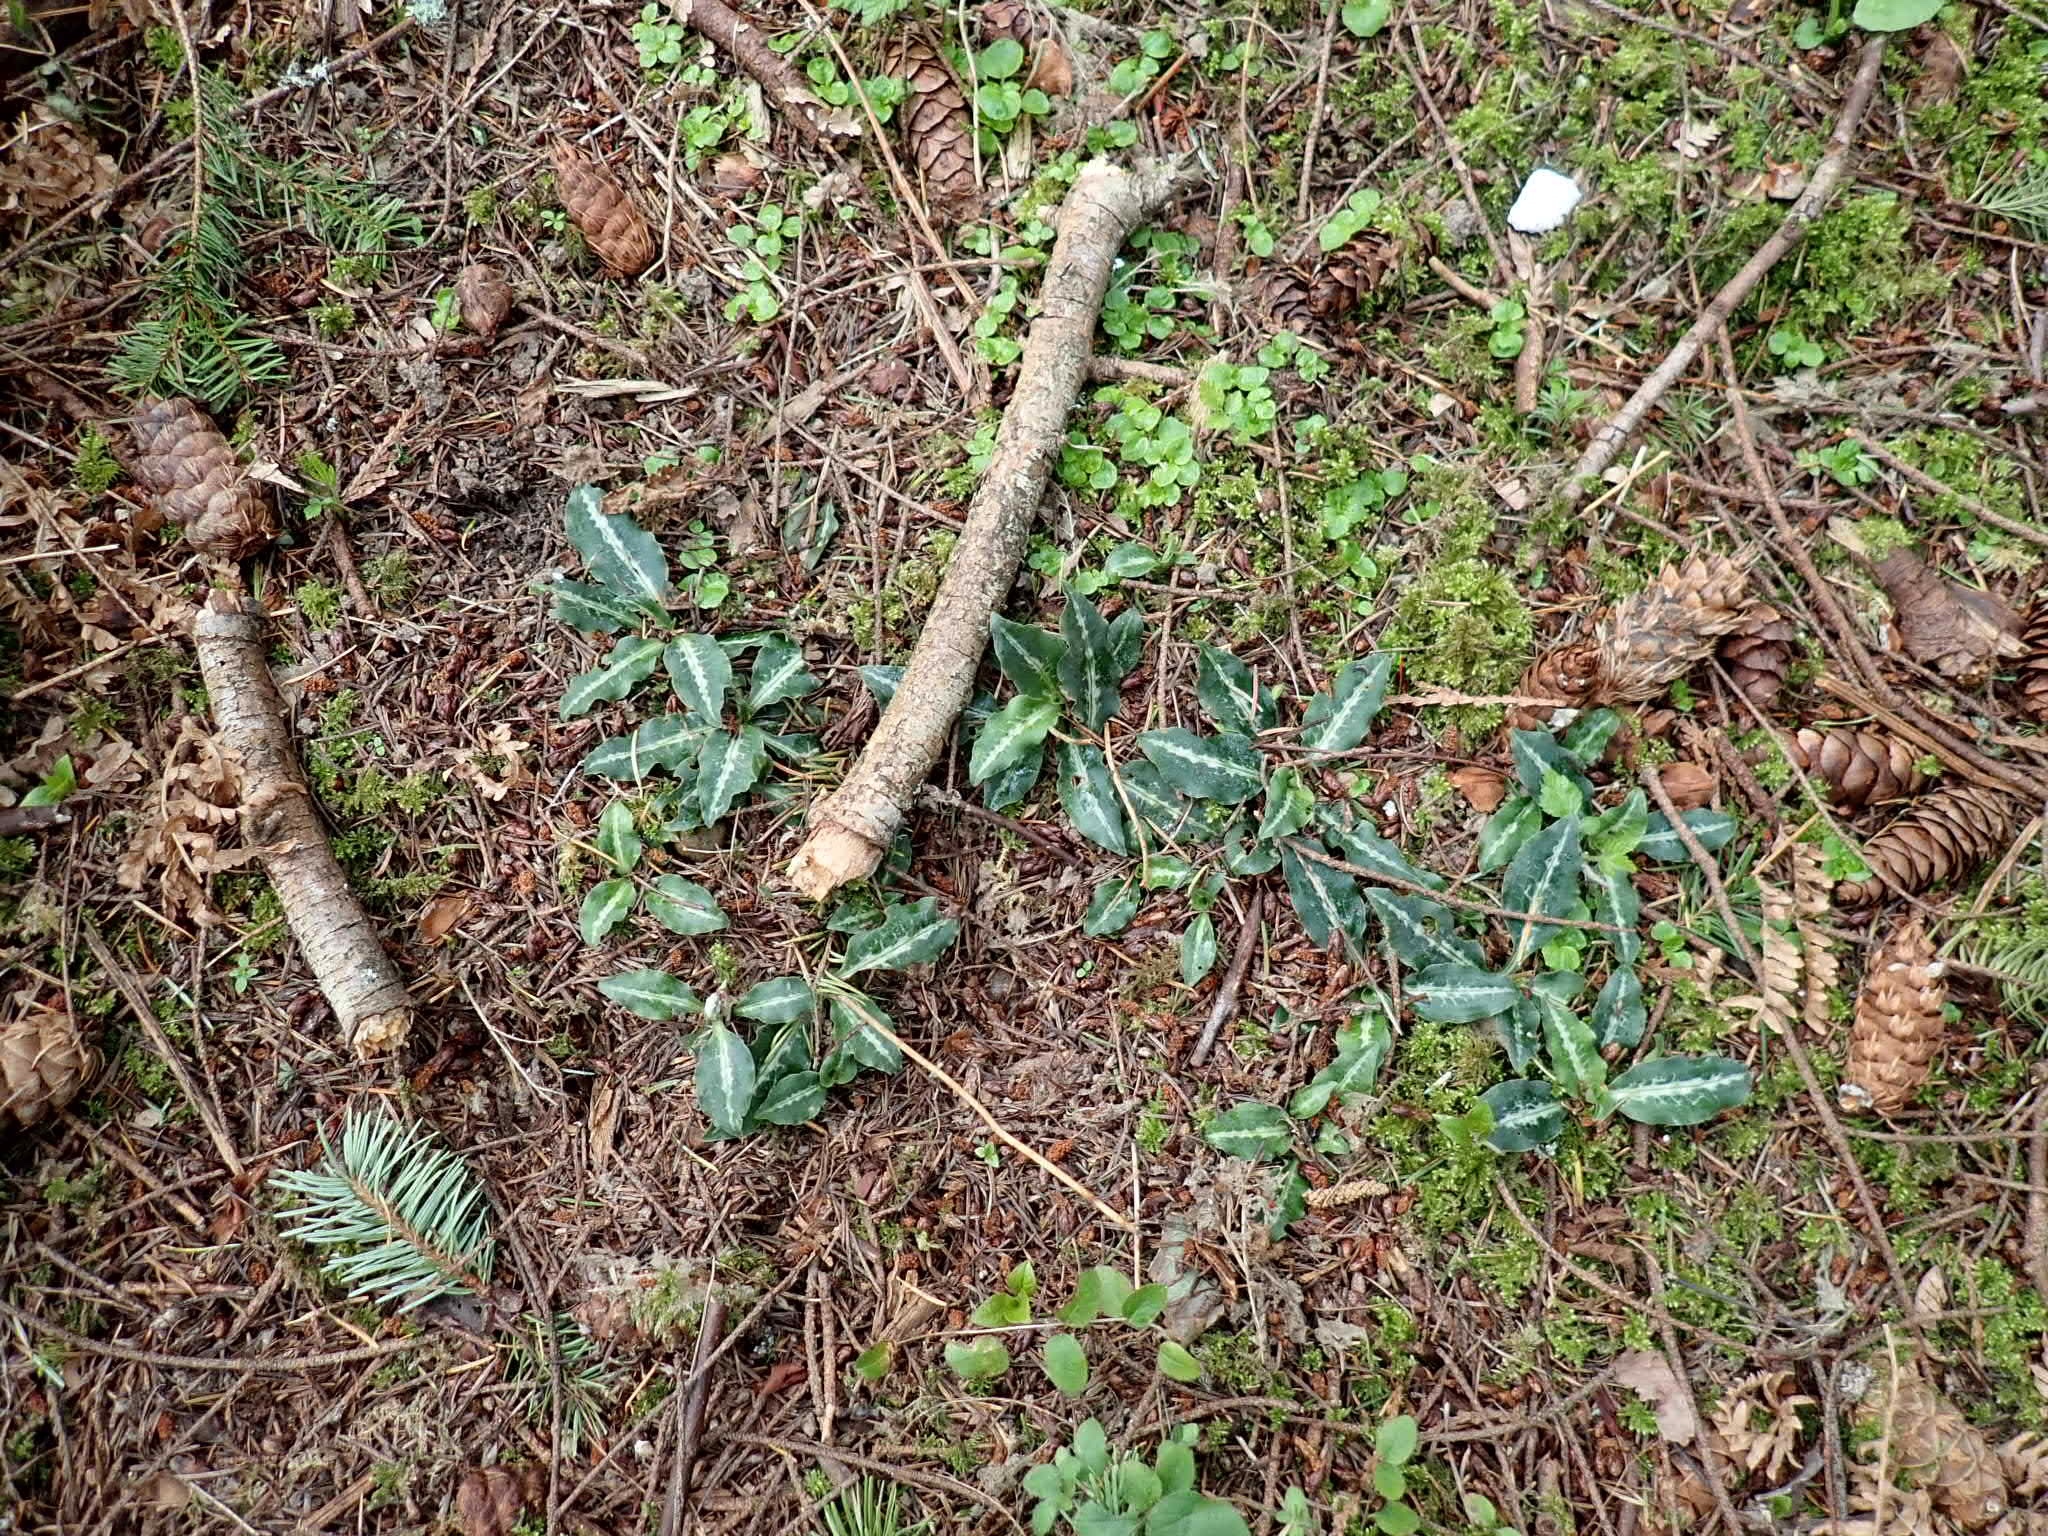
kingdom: Plantae
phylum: Tracheophyta
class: Liliopsida
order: Asparagales
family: Orchidaceae
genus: Goodyera
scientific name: Goodyera oblongifolia
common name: Giant rattlesnake-plantain
